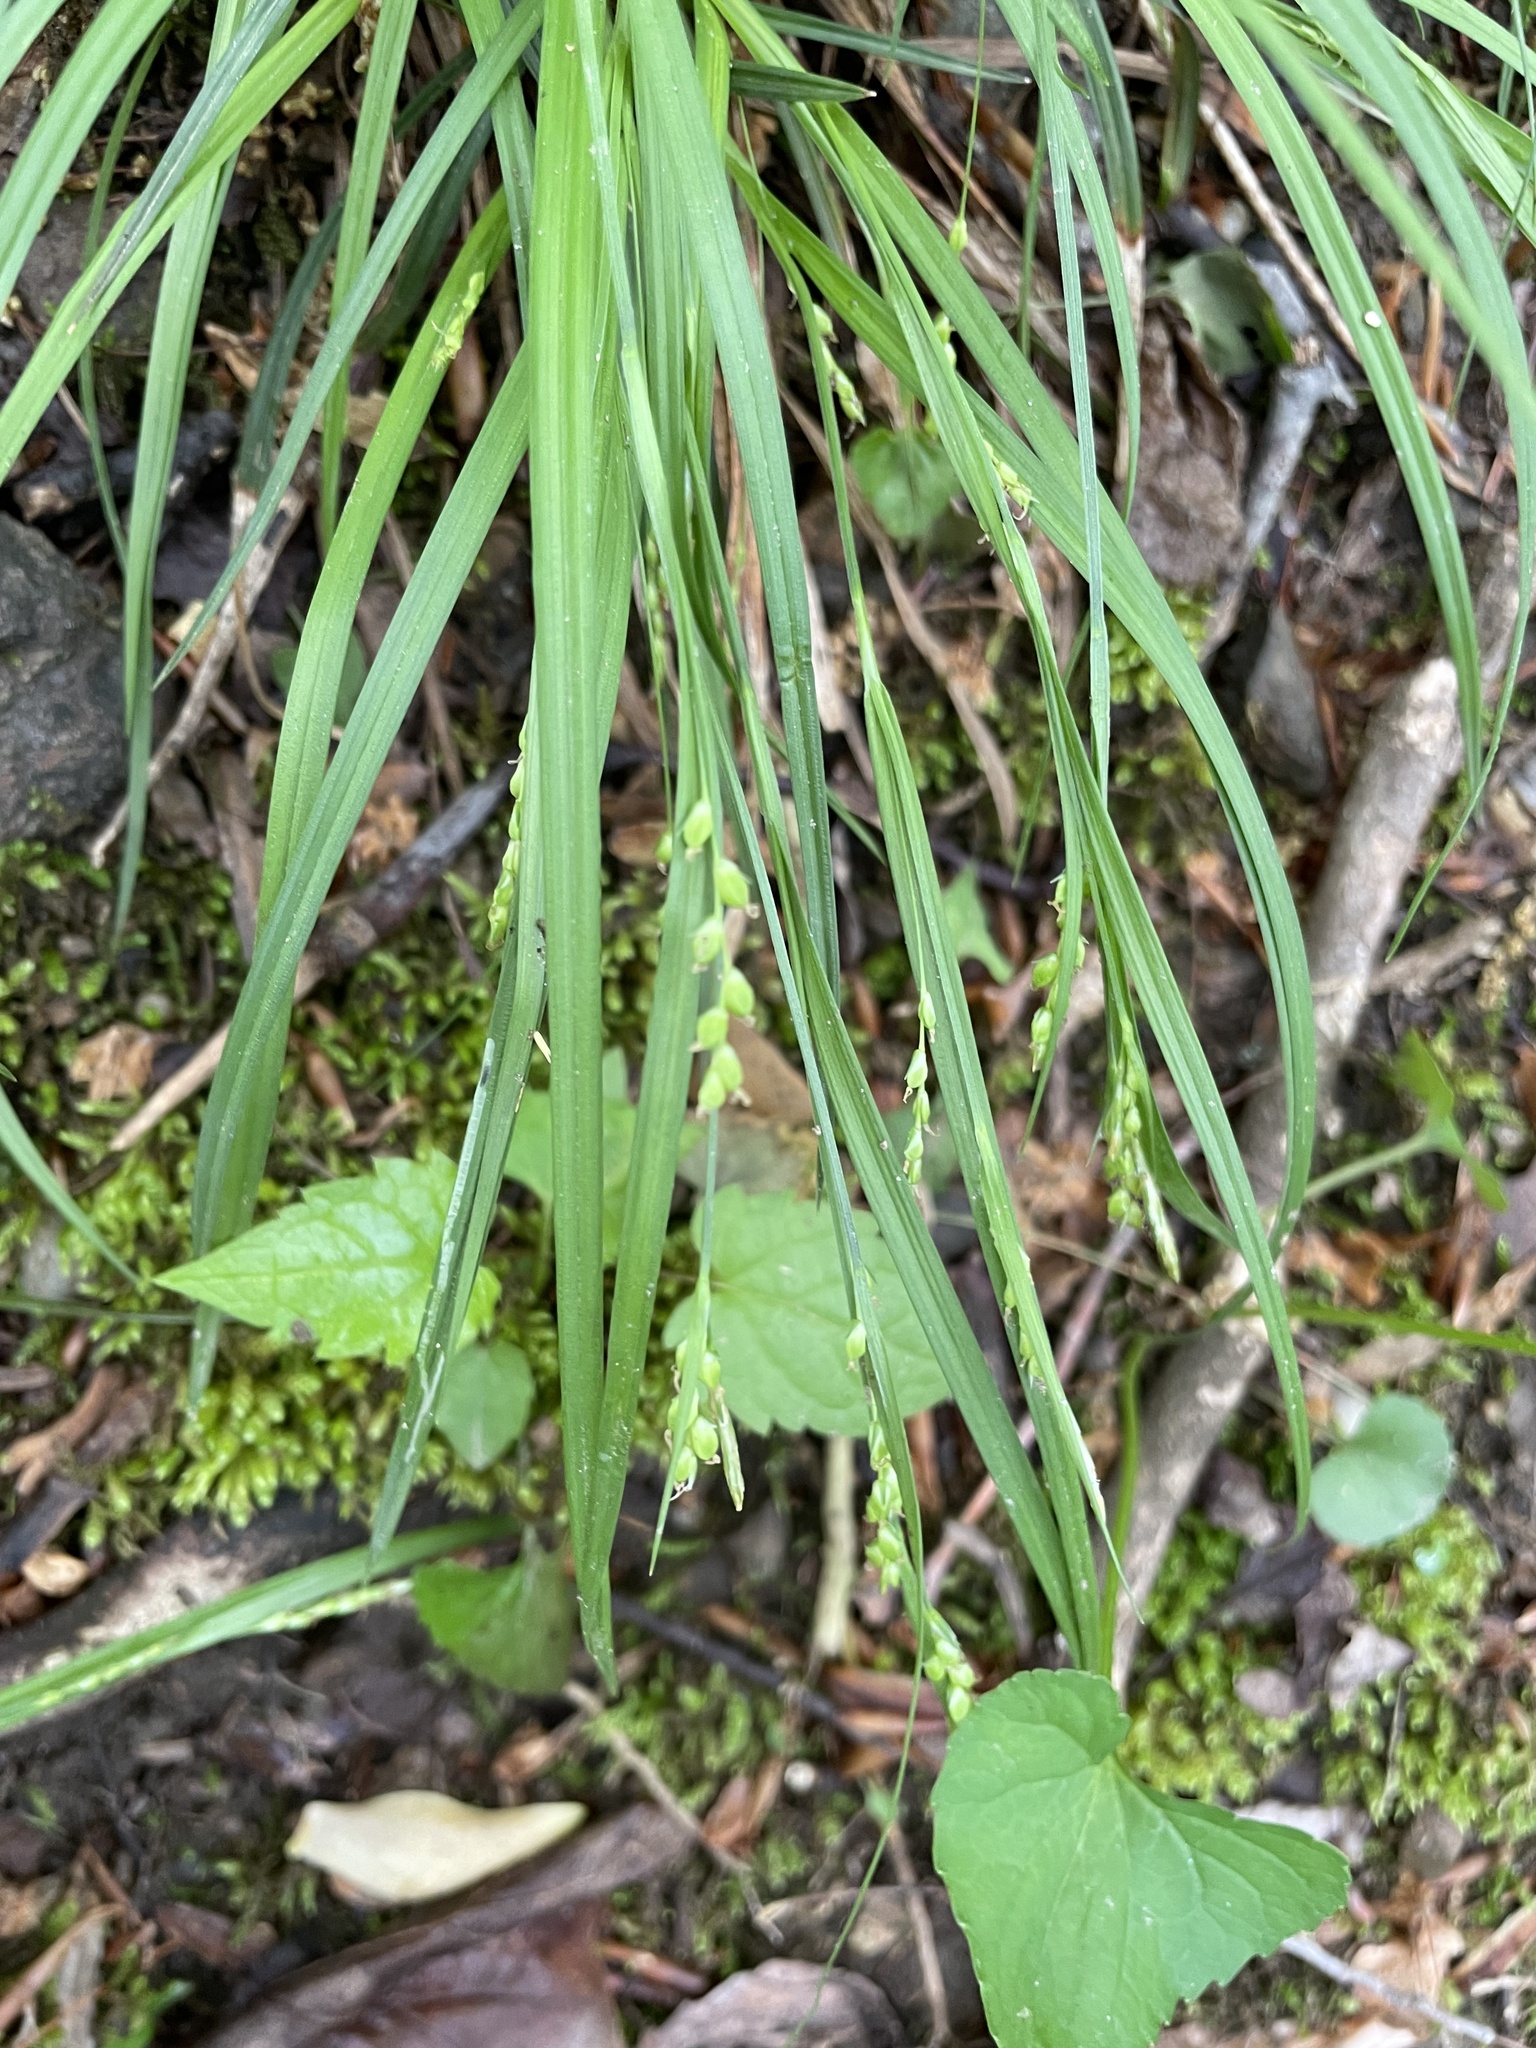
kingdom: Plantae
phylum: Tracheophyta
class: Liliopsida
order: Poales
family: Cyperaceae
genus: Carex
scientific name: Carex digitalis
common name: Slender wood sedge
